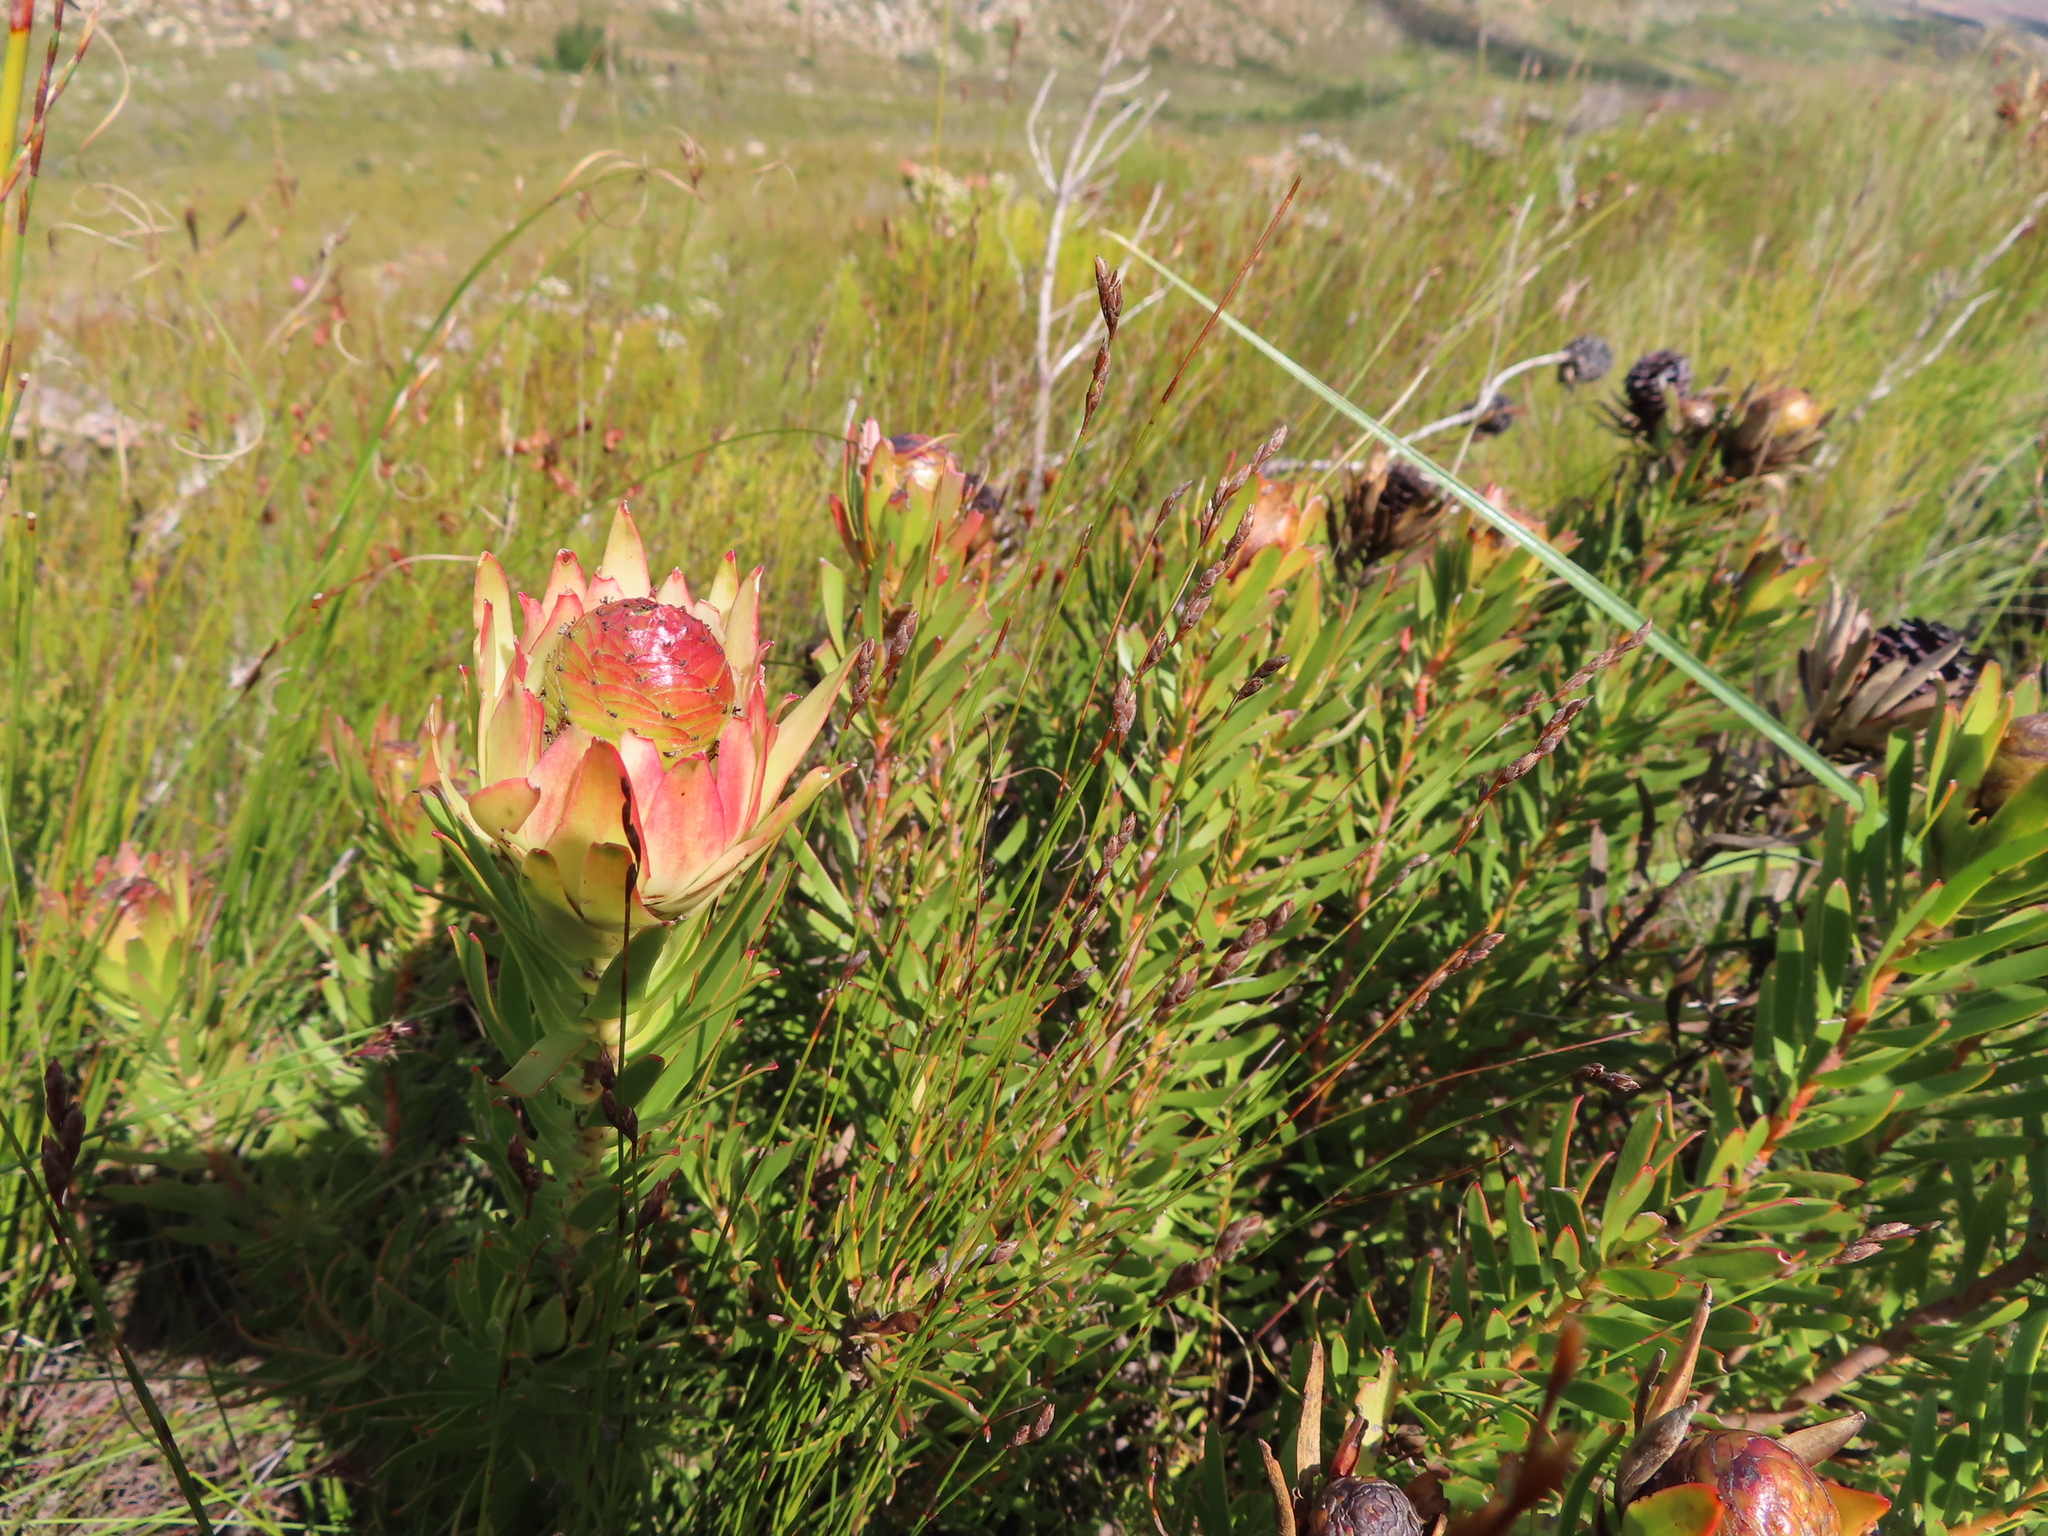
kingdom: Plantae
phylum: Tracheophyta
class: Magnoliopsida
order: Proteales
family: Proteaceae
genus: Leucadendron
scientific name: Leucadendron spissifolium
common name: Spear-leaf conebush
